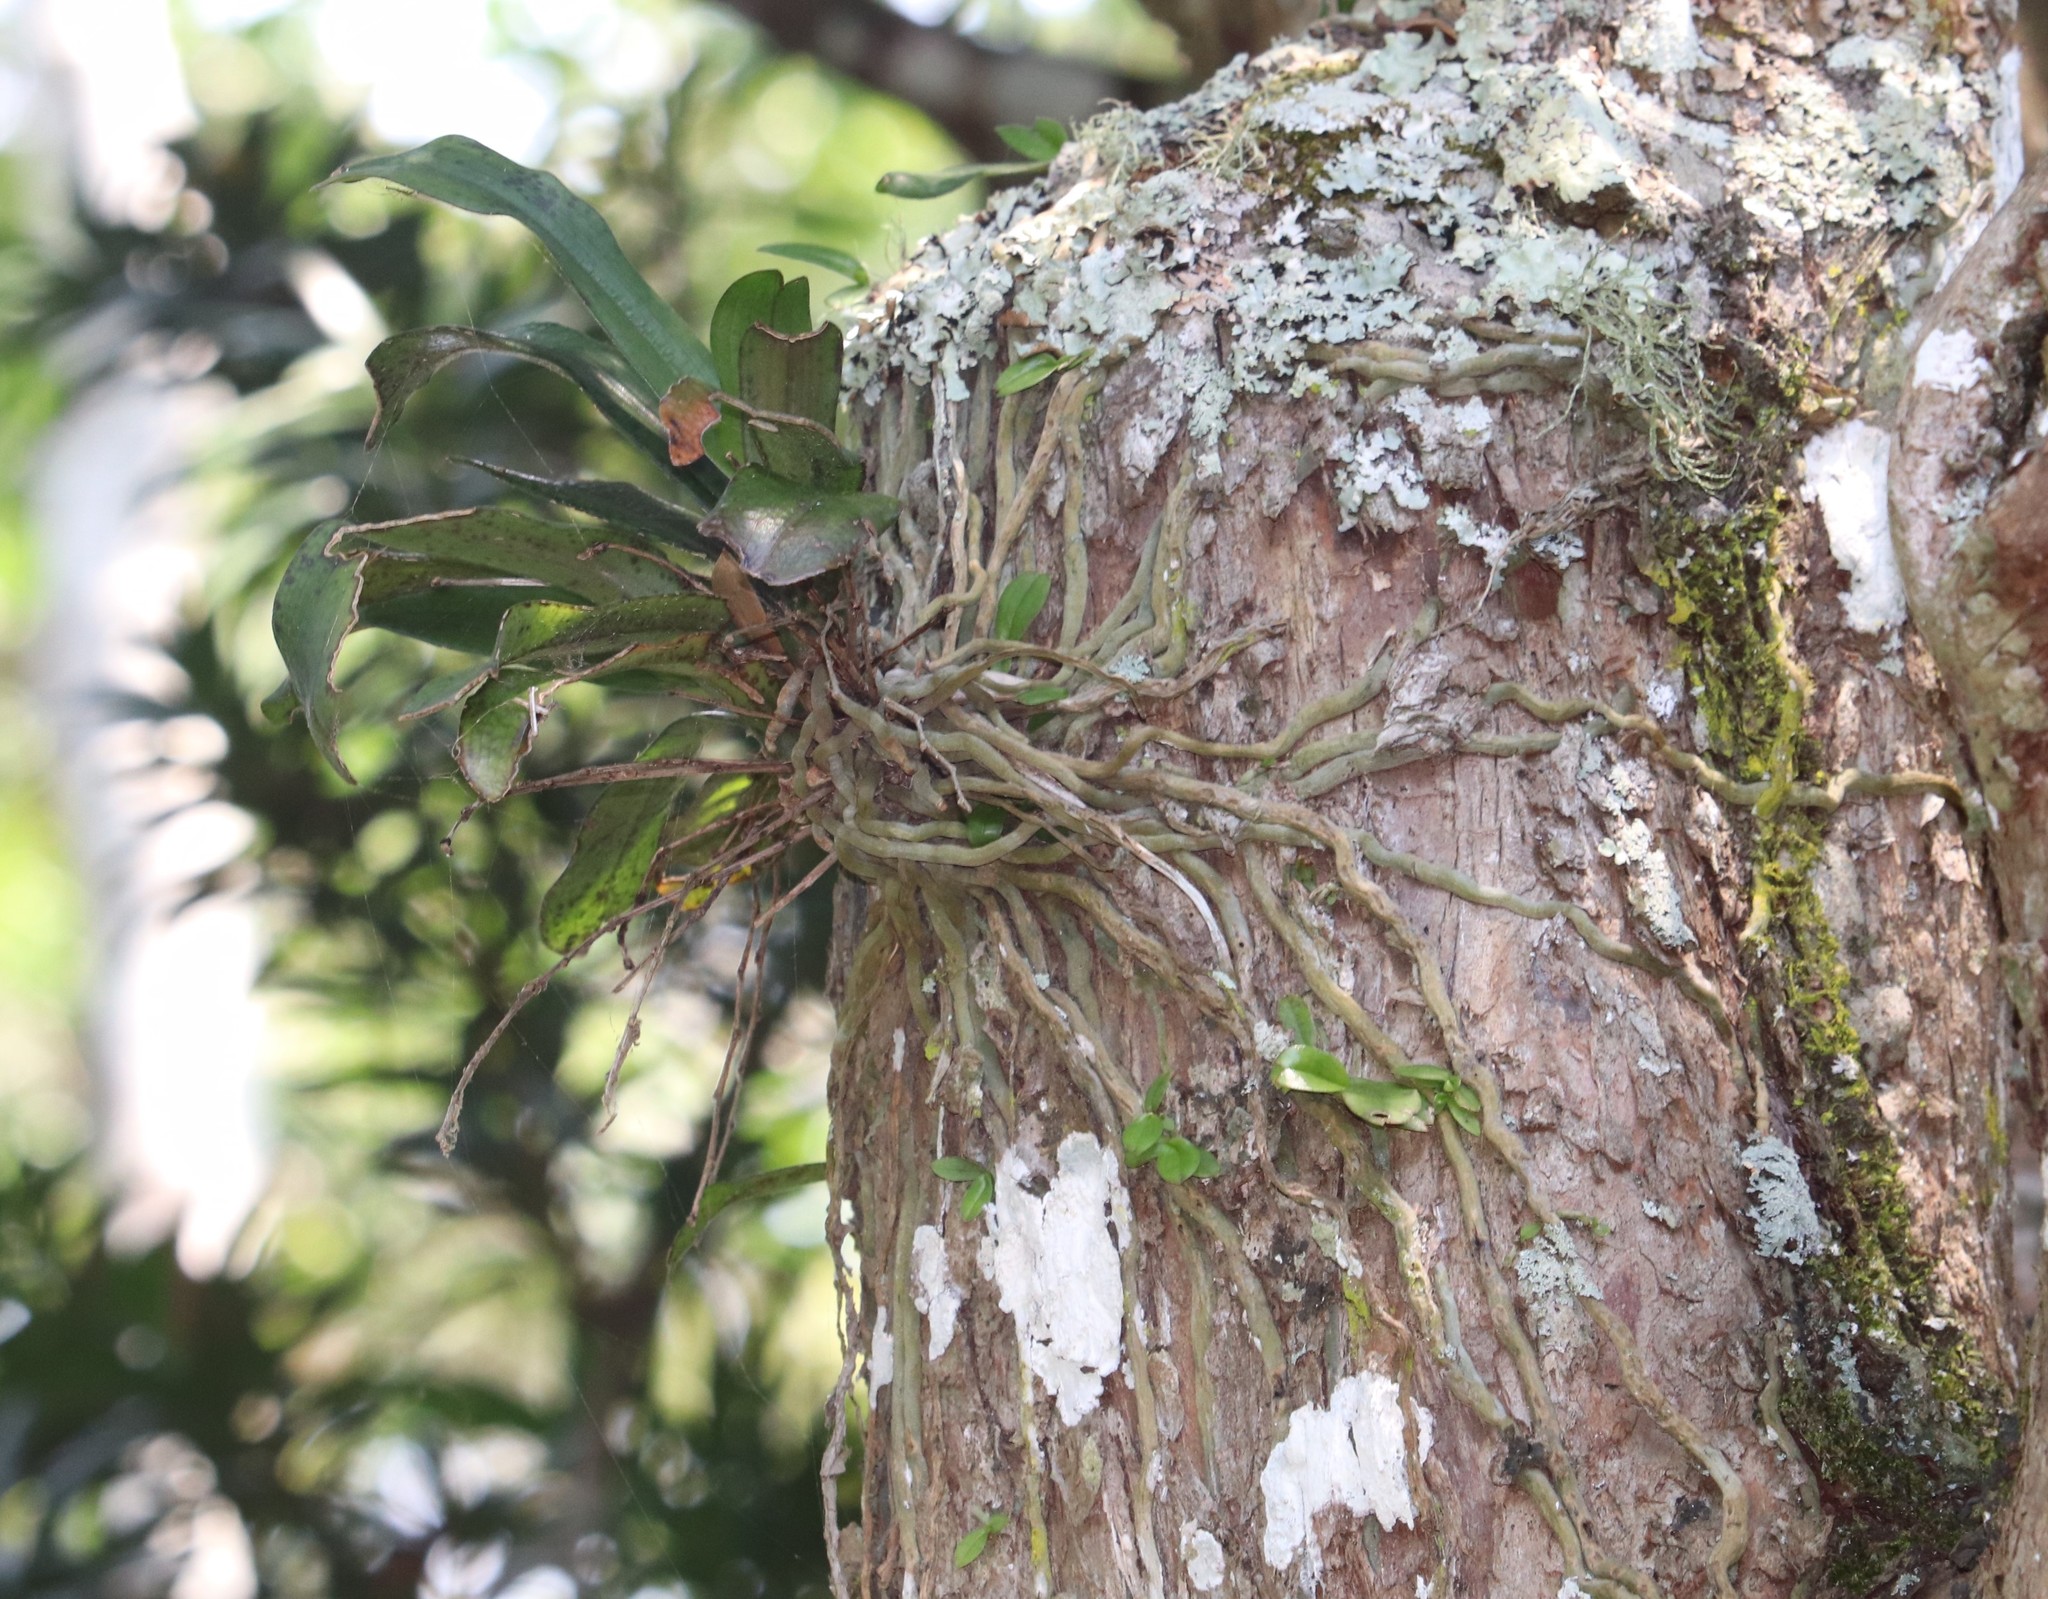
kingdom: Plantae
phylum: Tracheophyta
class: Liliopsida
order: Asparagales
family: Orchidaceae
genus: Mystacidium
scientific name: Mystacidium capense
